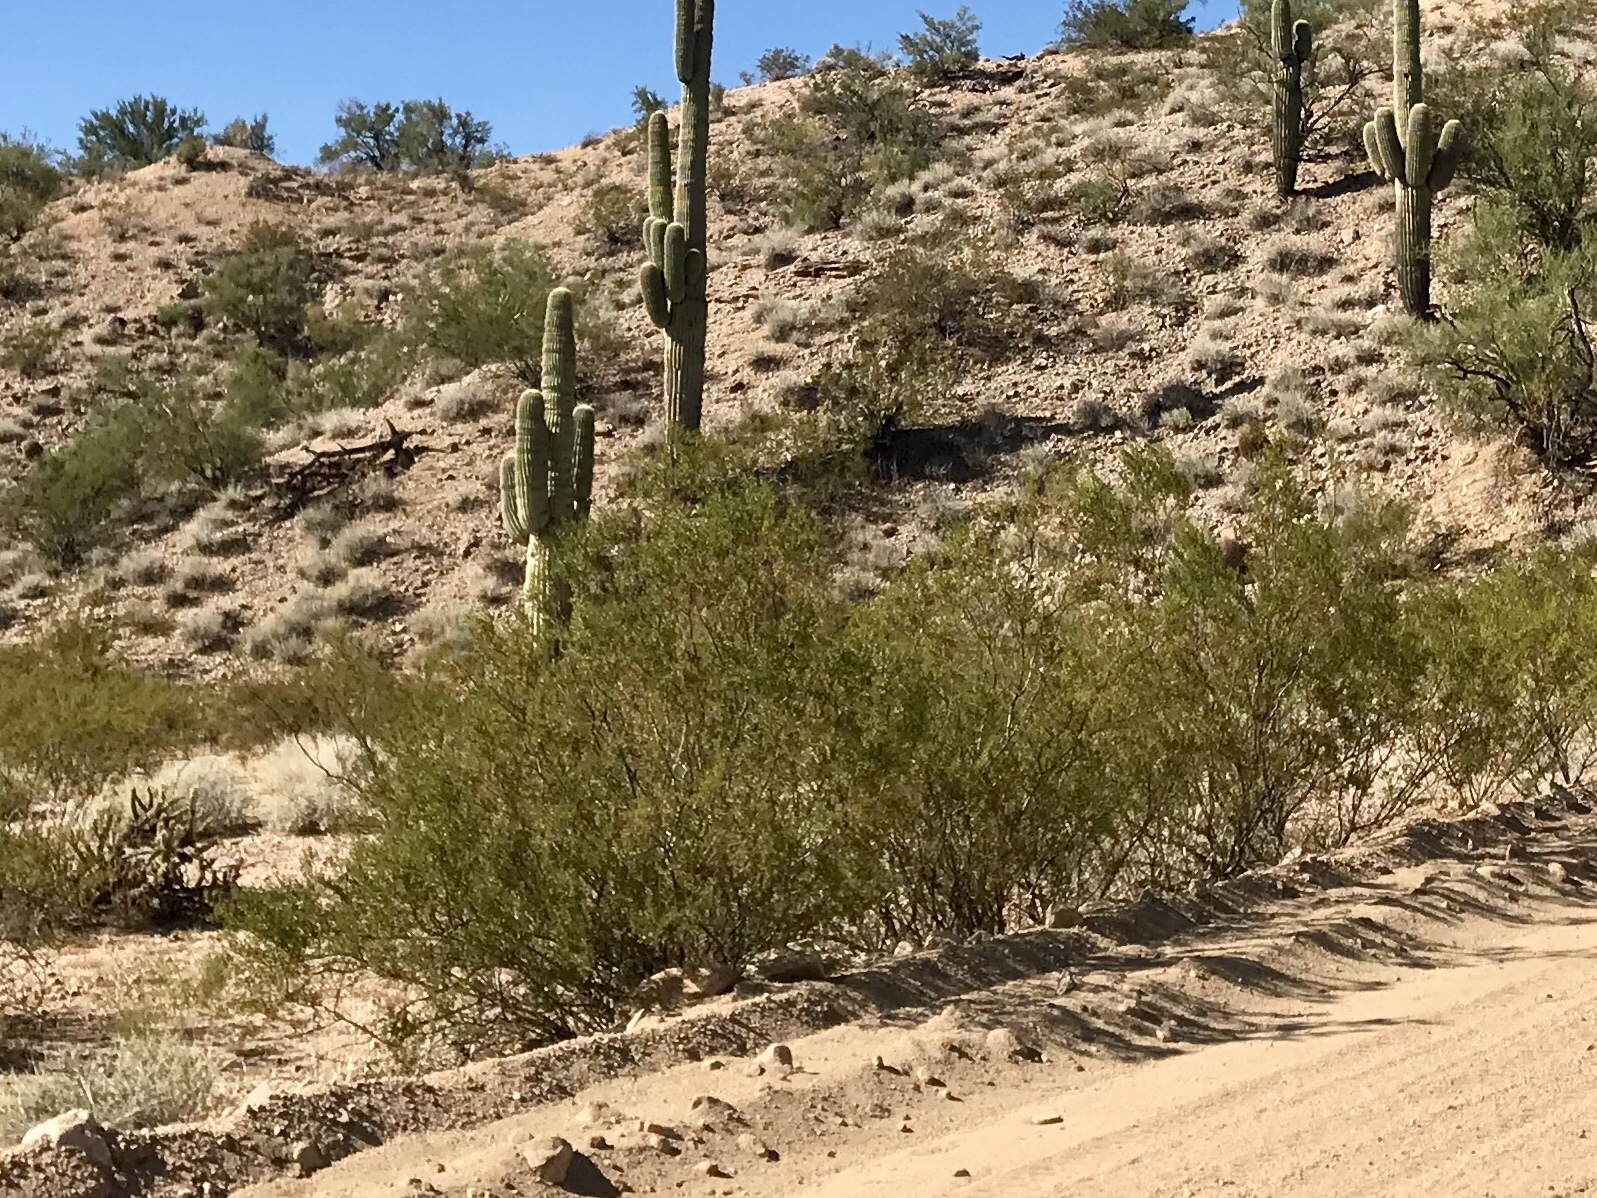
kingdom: Plantae
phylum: Tracheophyta
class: Magnoliopsida
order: Zygophyllales
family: Zygophyllaceae
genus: Larrea
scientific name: Larrea tridentata
